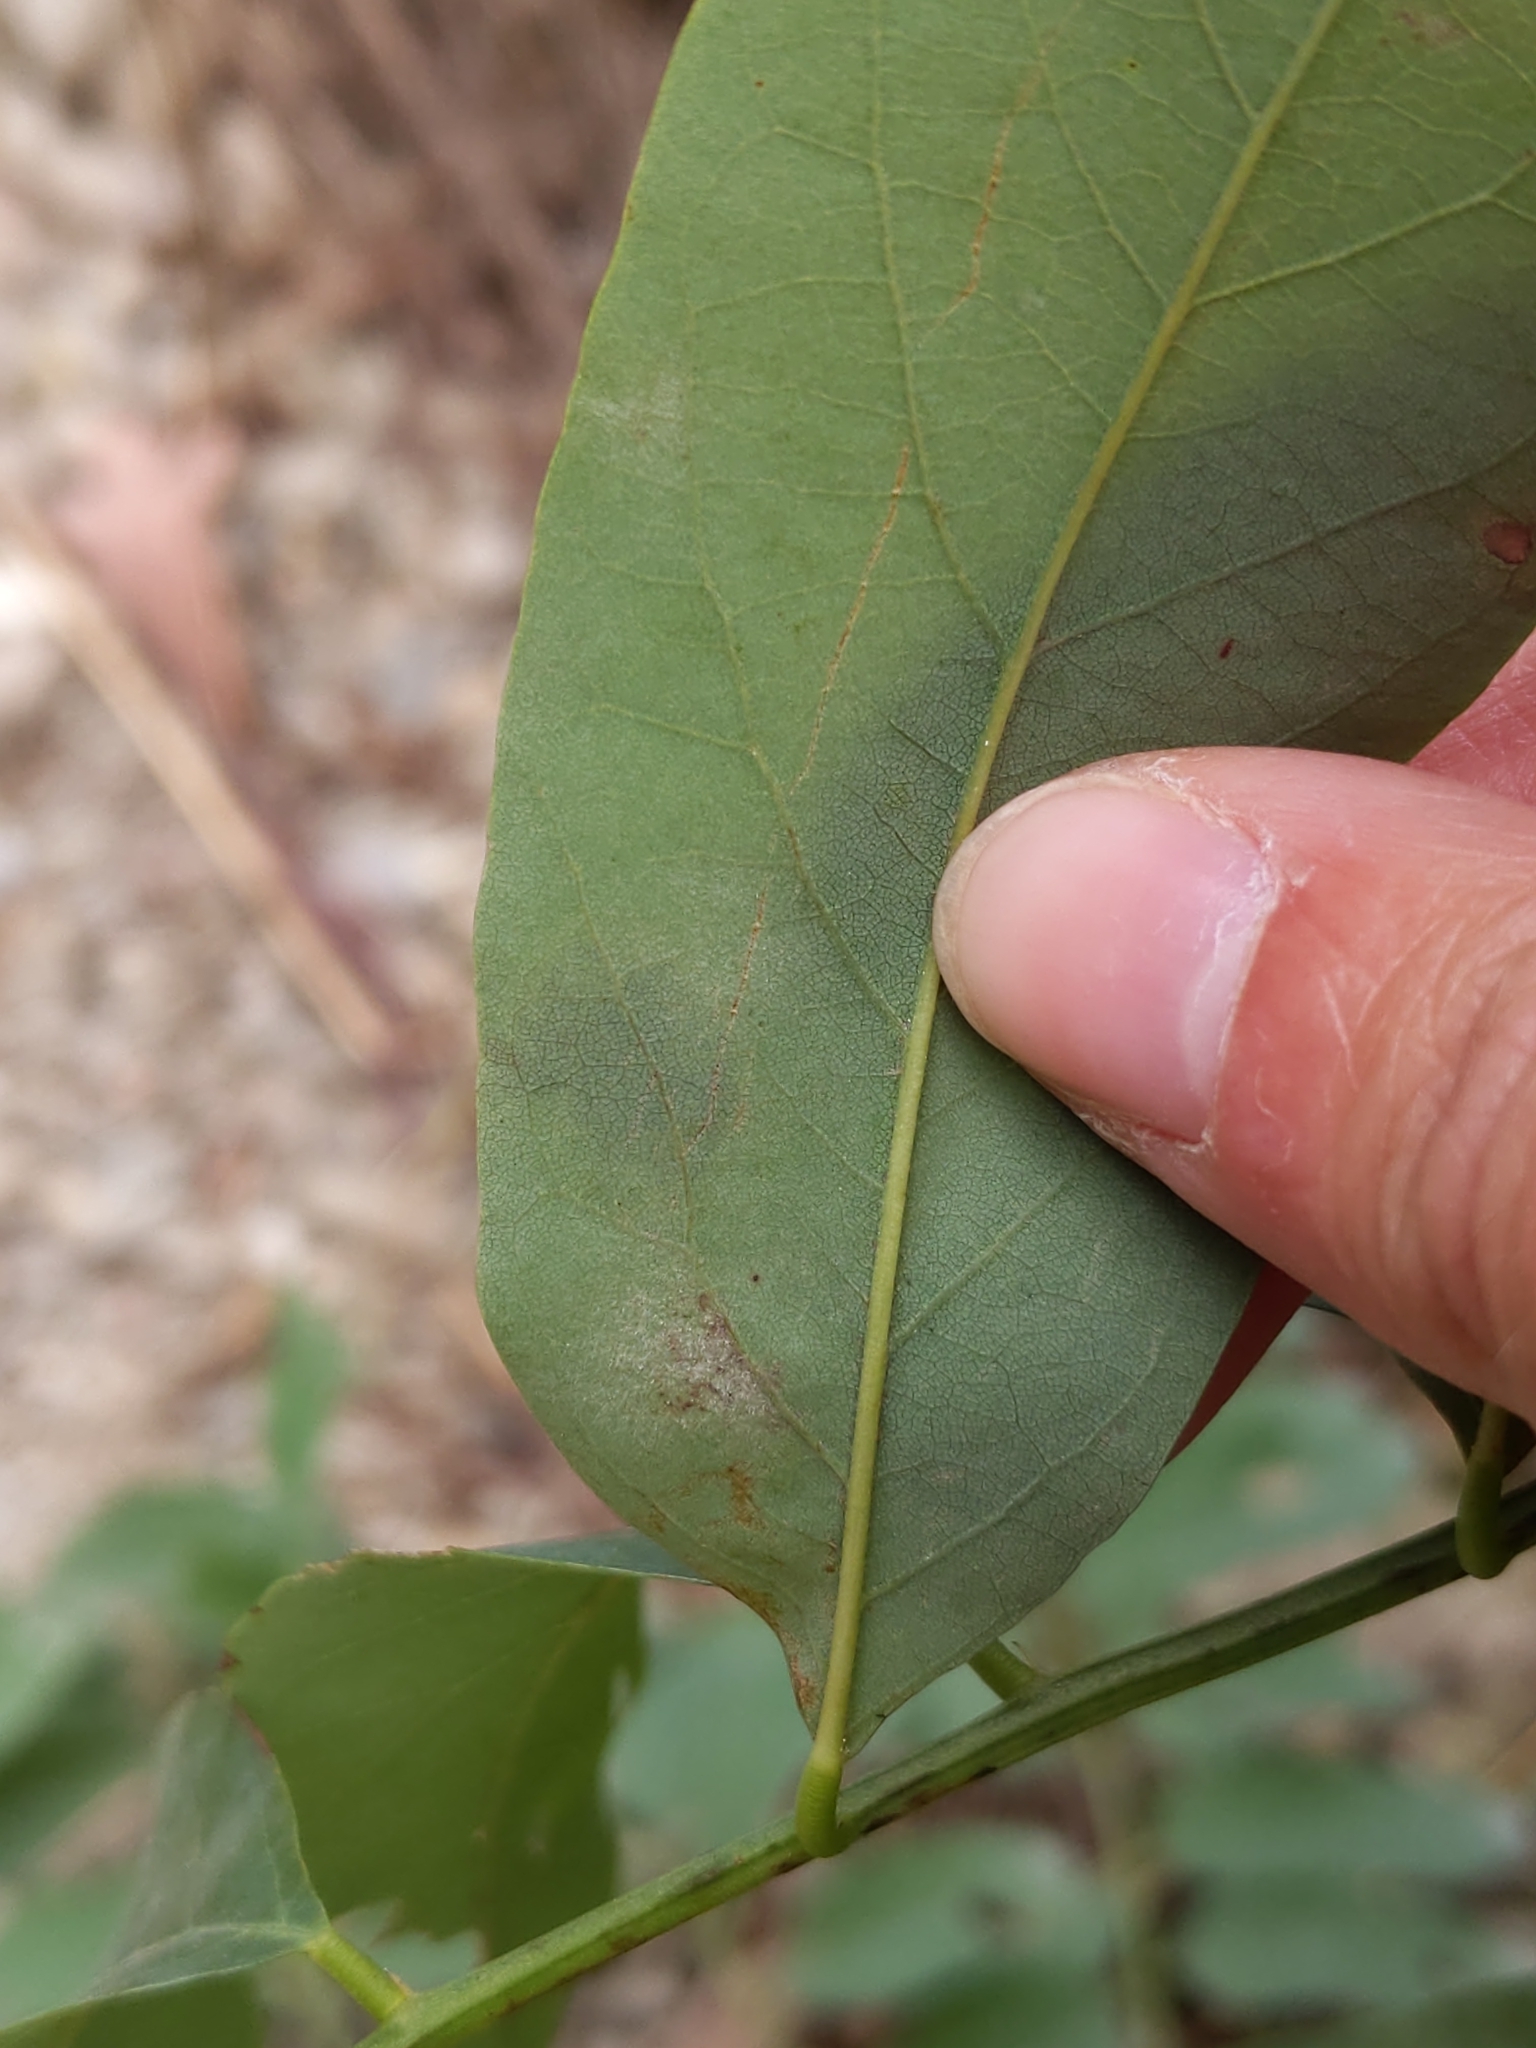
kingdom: Animalia
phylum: Arthropoda
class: Insecta
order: Lepidoptera
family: Gracillariidae
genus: Chrysaster
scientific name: Chrysaster ostensackenella
